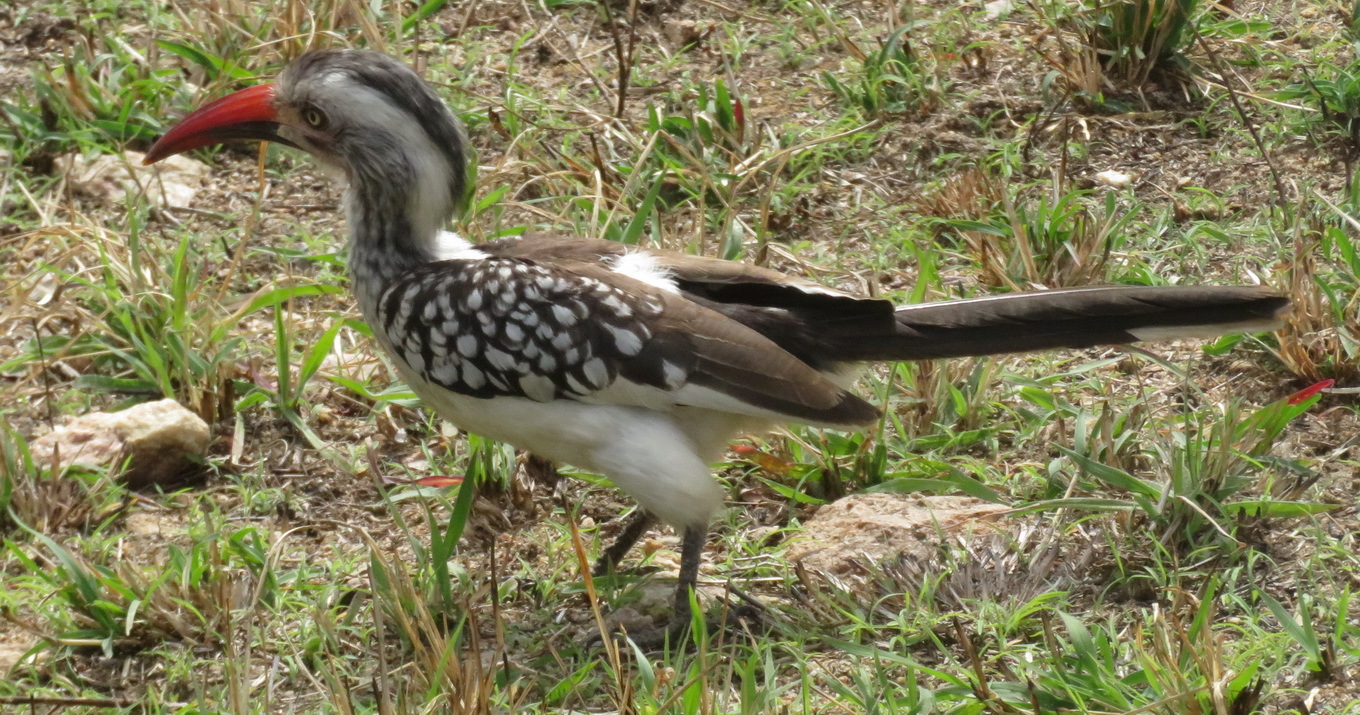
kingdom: Animalia
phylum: Chordata
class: Aves
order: Bucerotiformes
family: Bucerotidae
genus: Tockus
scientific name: Tockus rufirostris
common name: Southern red-billed hornbill
